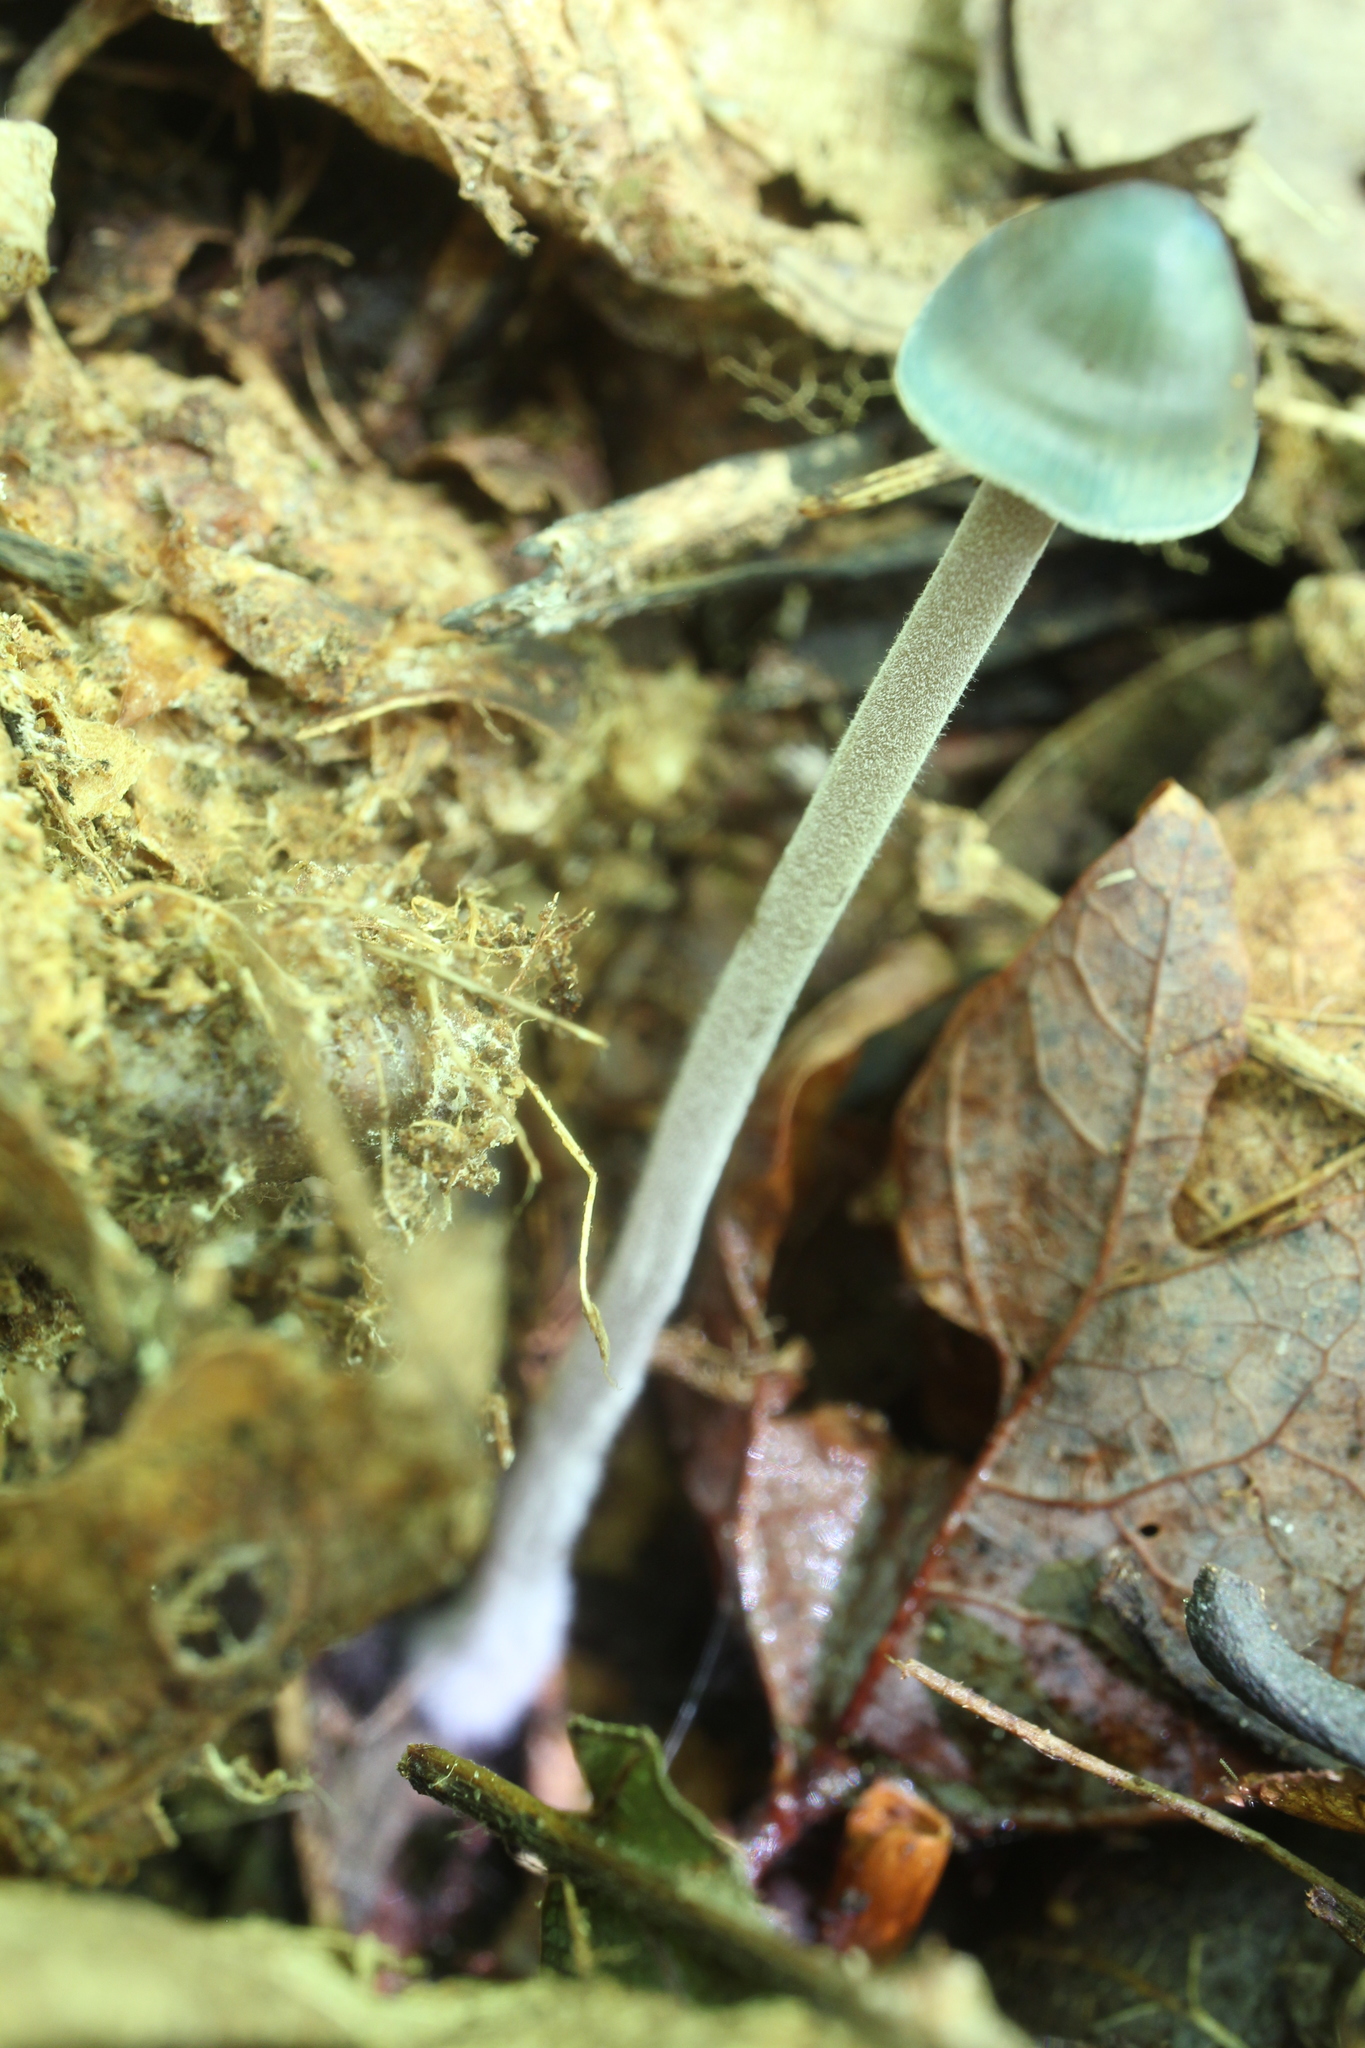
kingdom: Fungi
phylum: Basidiomycota
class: Agaricomycetes
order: Agaricales
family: Mycenaceae
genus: Mycena
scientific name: Mycena subcaerulea
